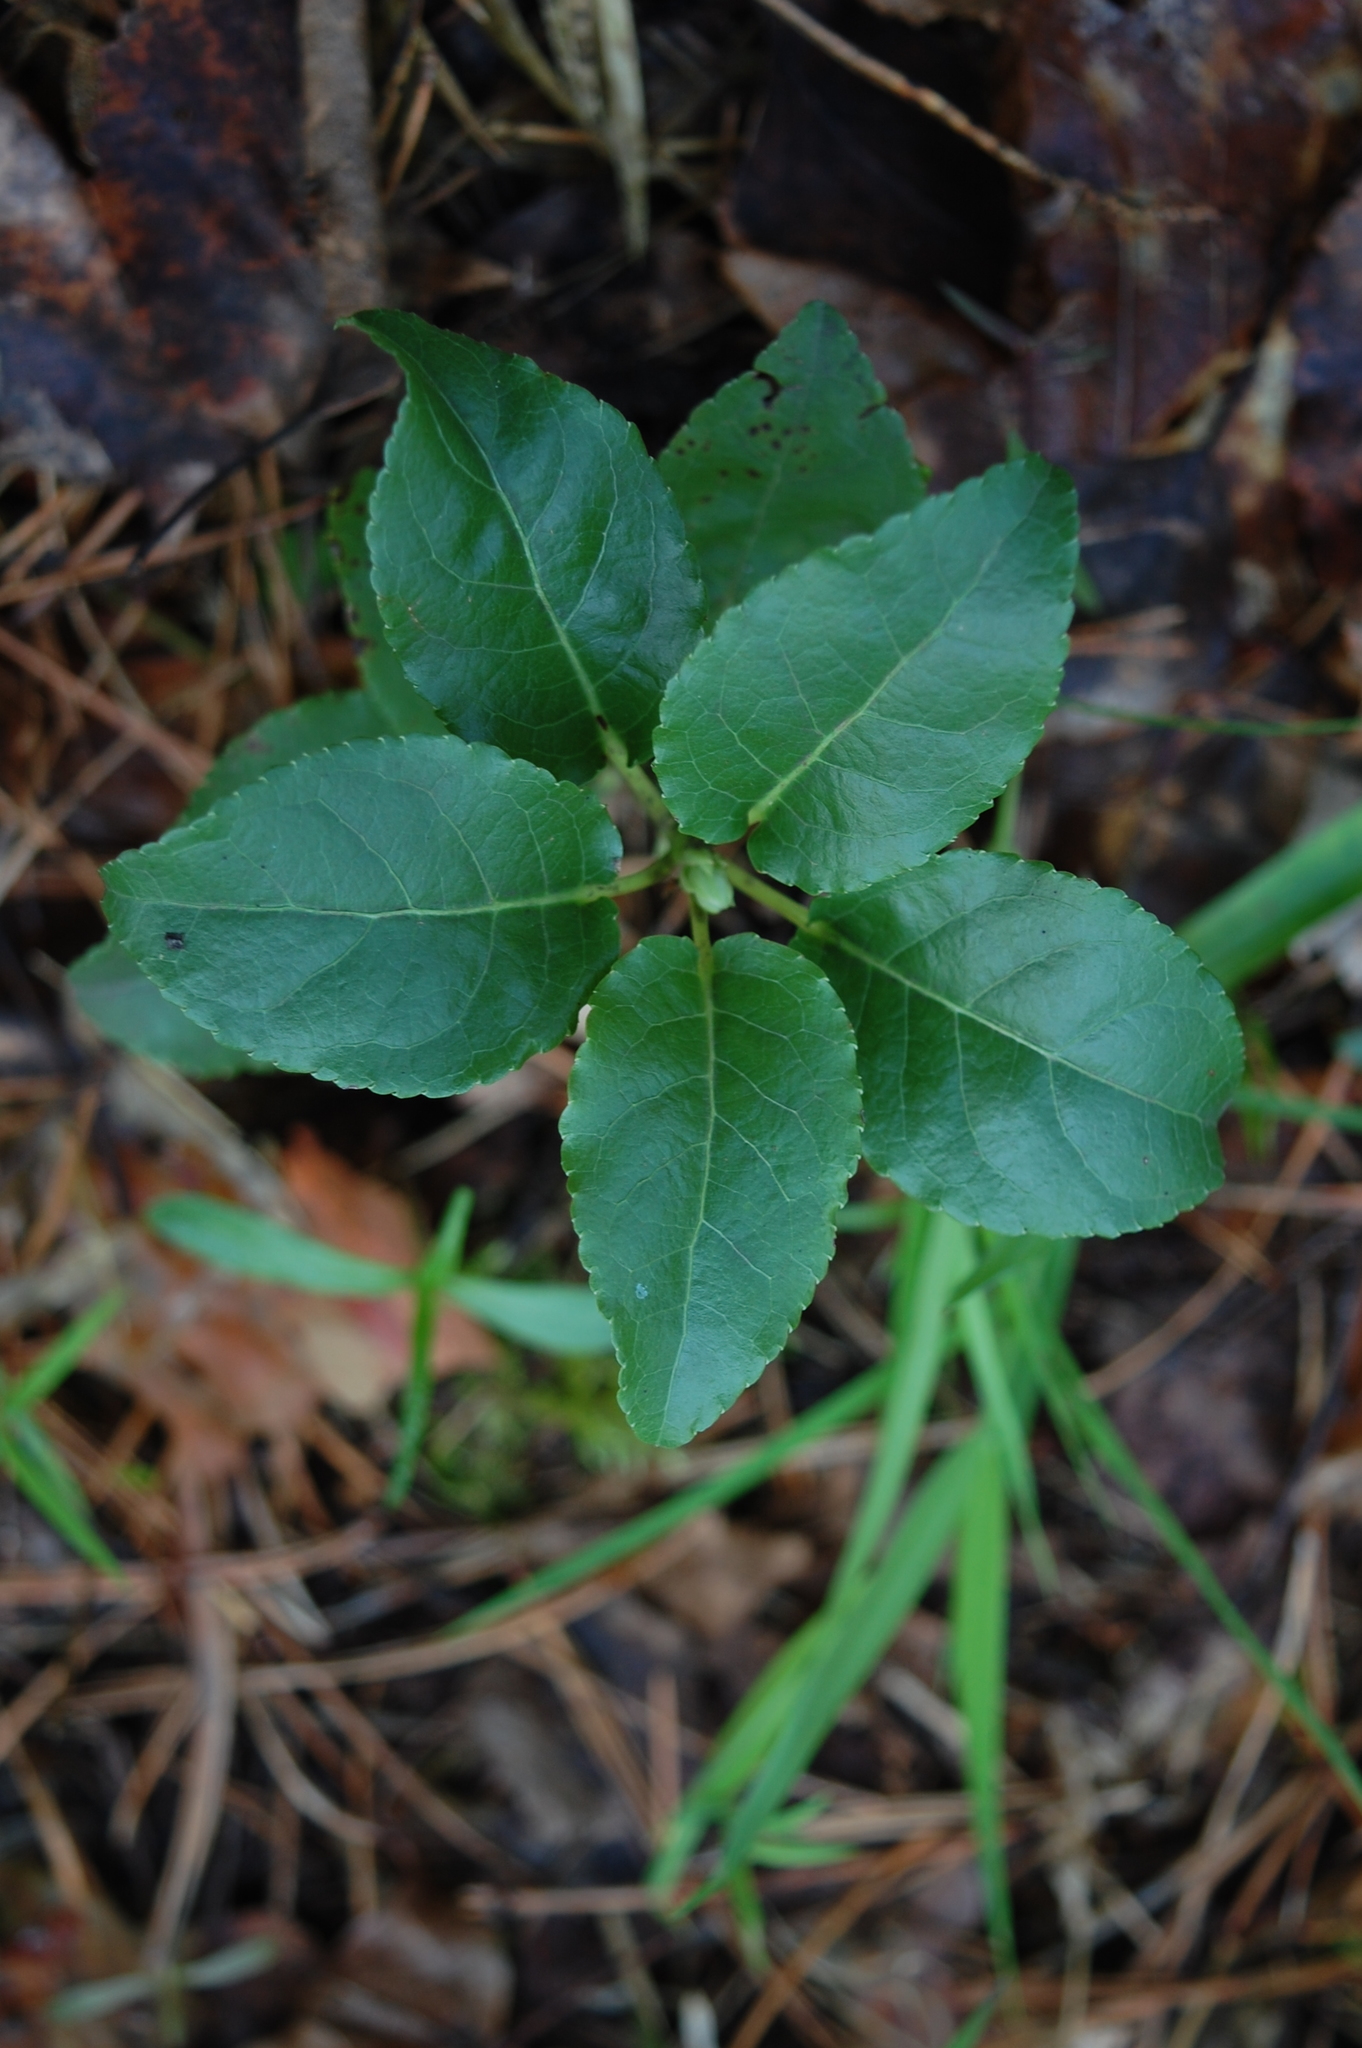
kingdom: Plantae
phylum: Tracheophyta
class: Magnoliopsida
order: Ericales
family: Ericaceae
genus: Orthilia
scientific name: Orthilia secunda
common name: One-sided orthilia
